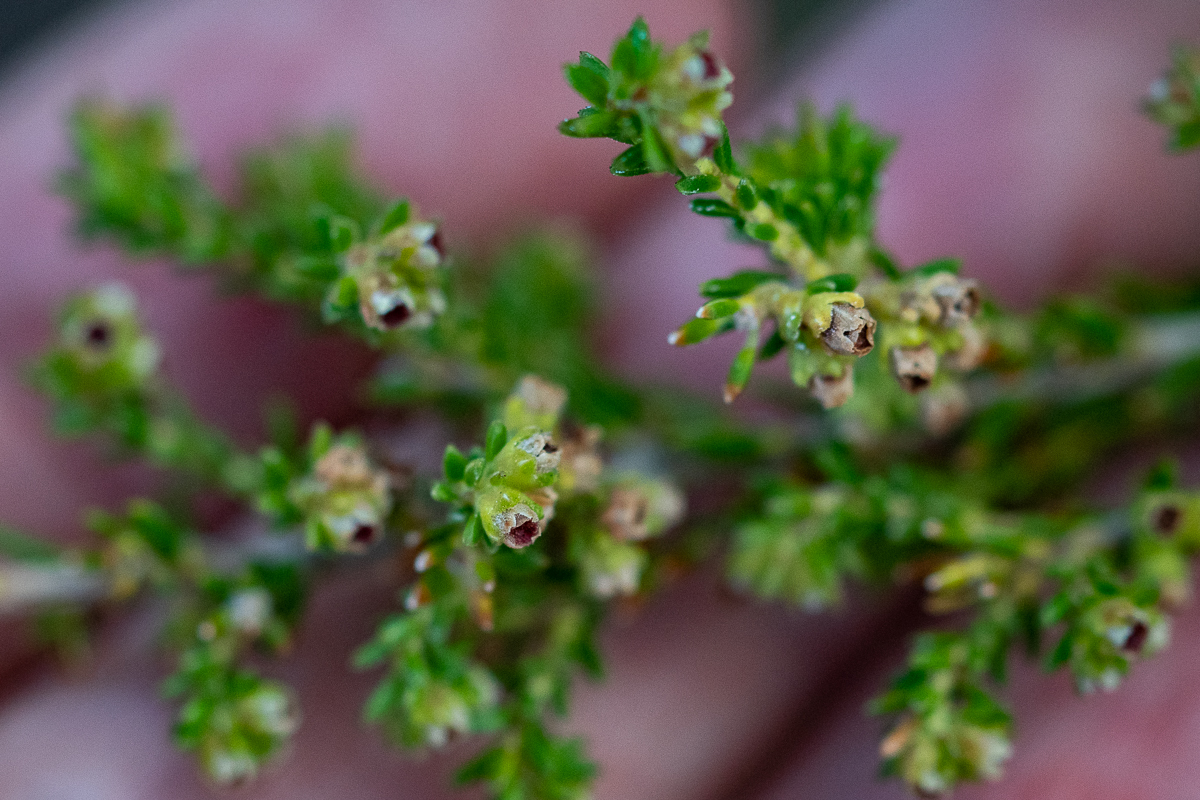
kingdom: Plantae
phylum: Tracheophyta
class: Magnoliopsida
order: Ericales
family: Ericaceae
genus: Erica
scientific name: Erica serrata
